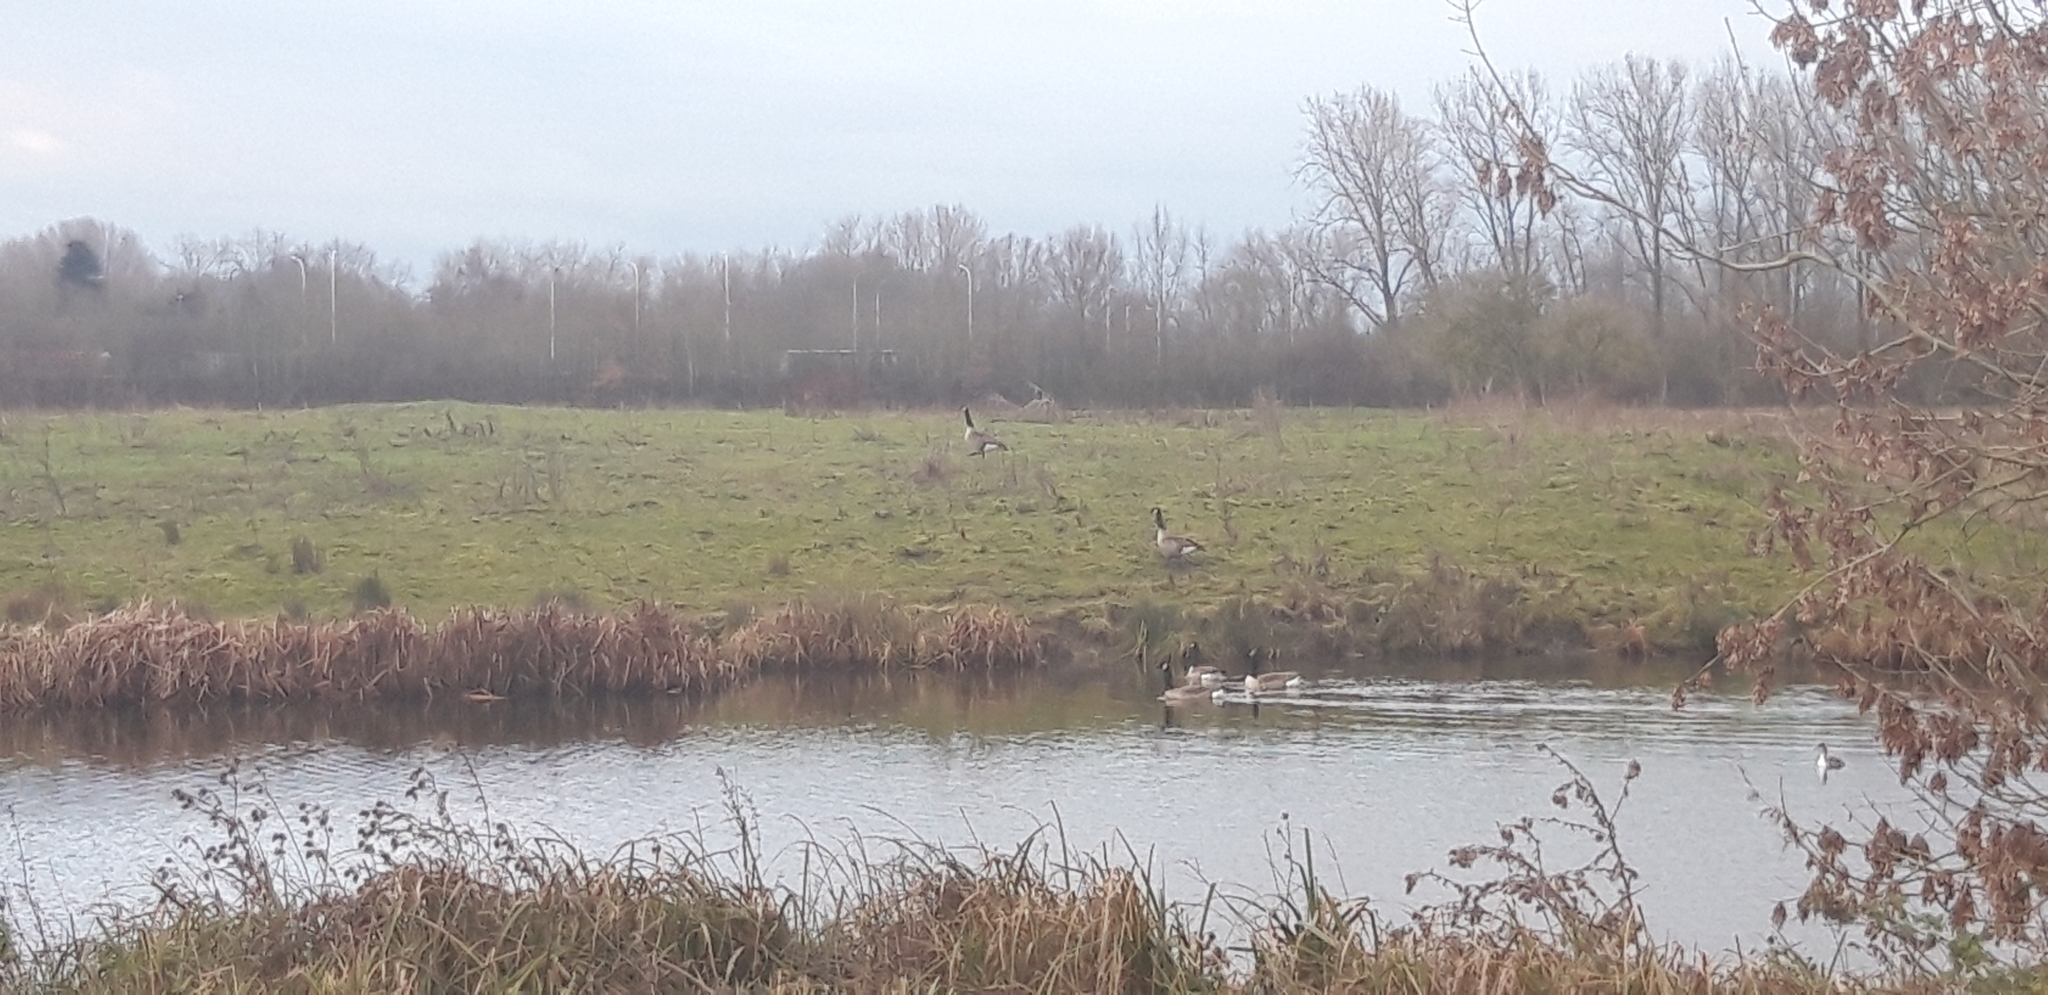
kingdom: Animalia
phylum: Chordata
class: Aves
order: Anseriformes
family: Anatidae
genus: Branta
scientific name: Branta canadensis
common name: Canada goose
